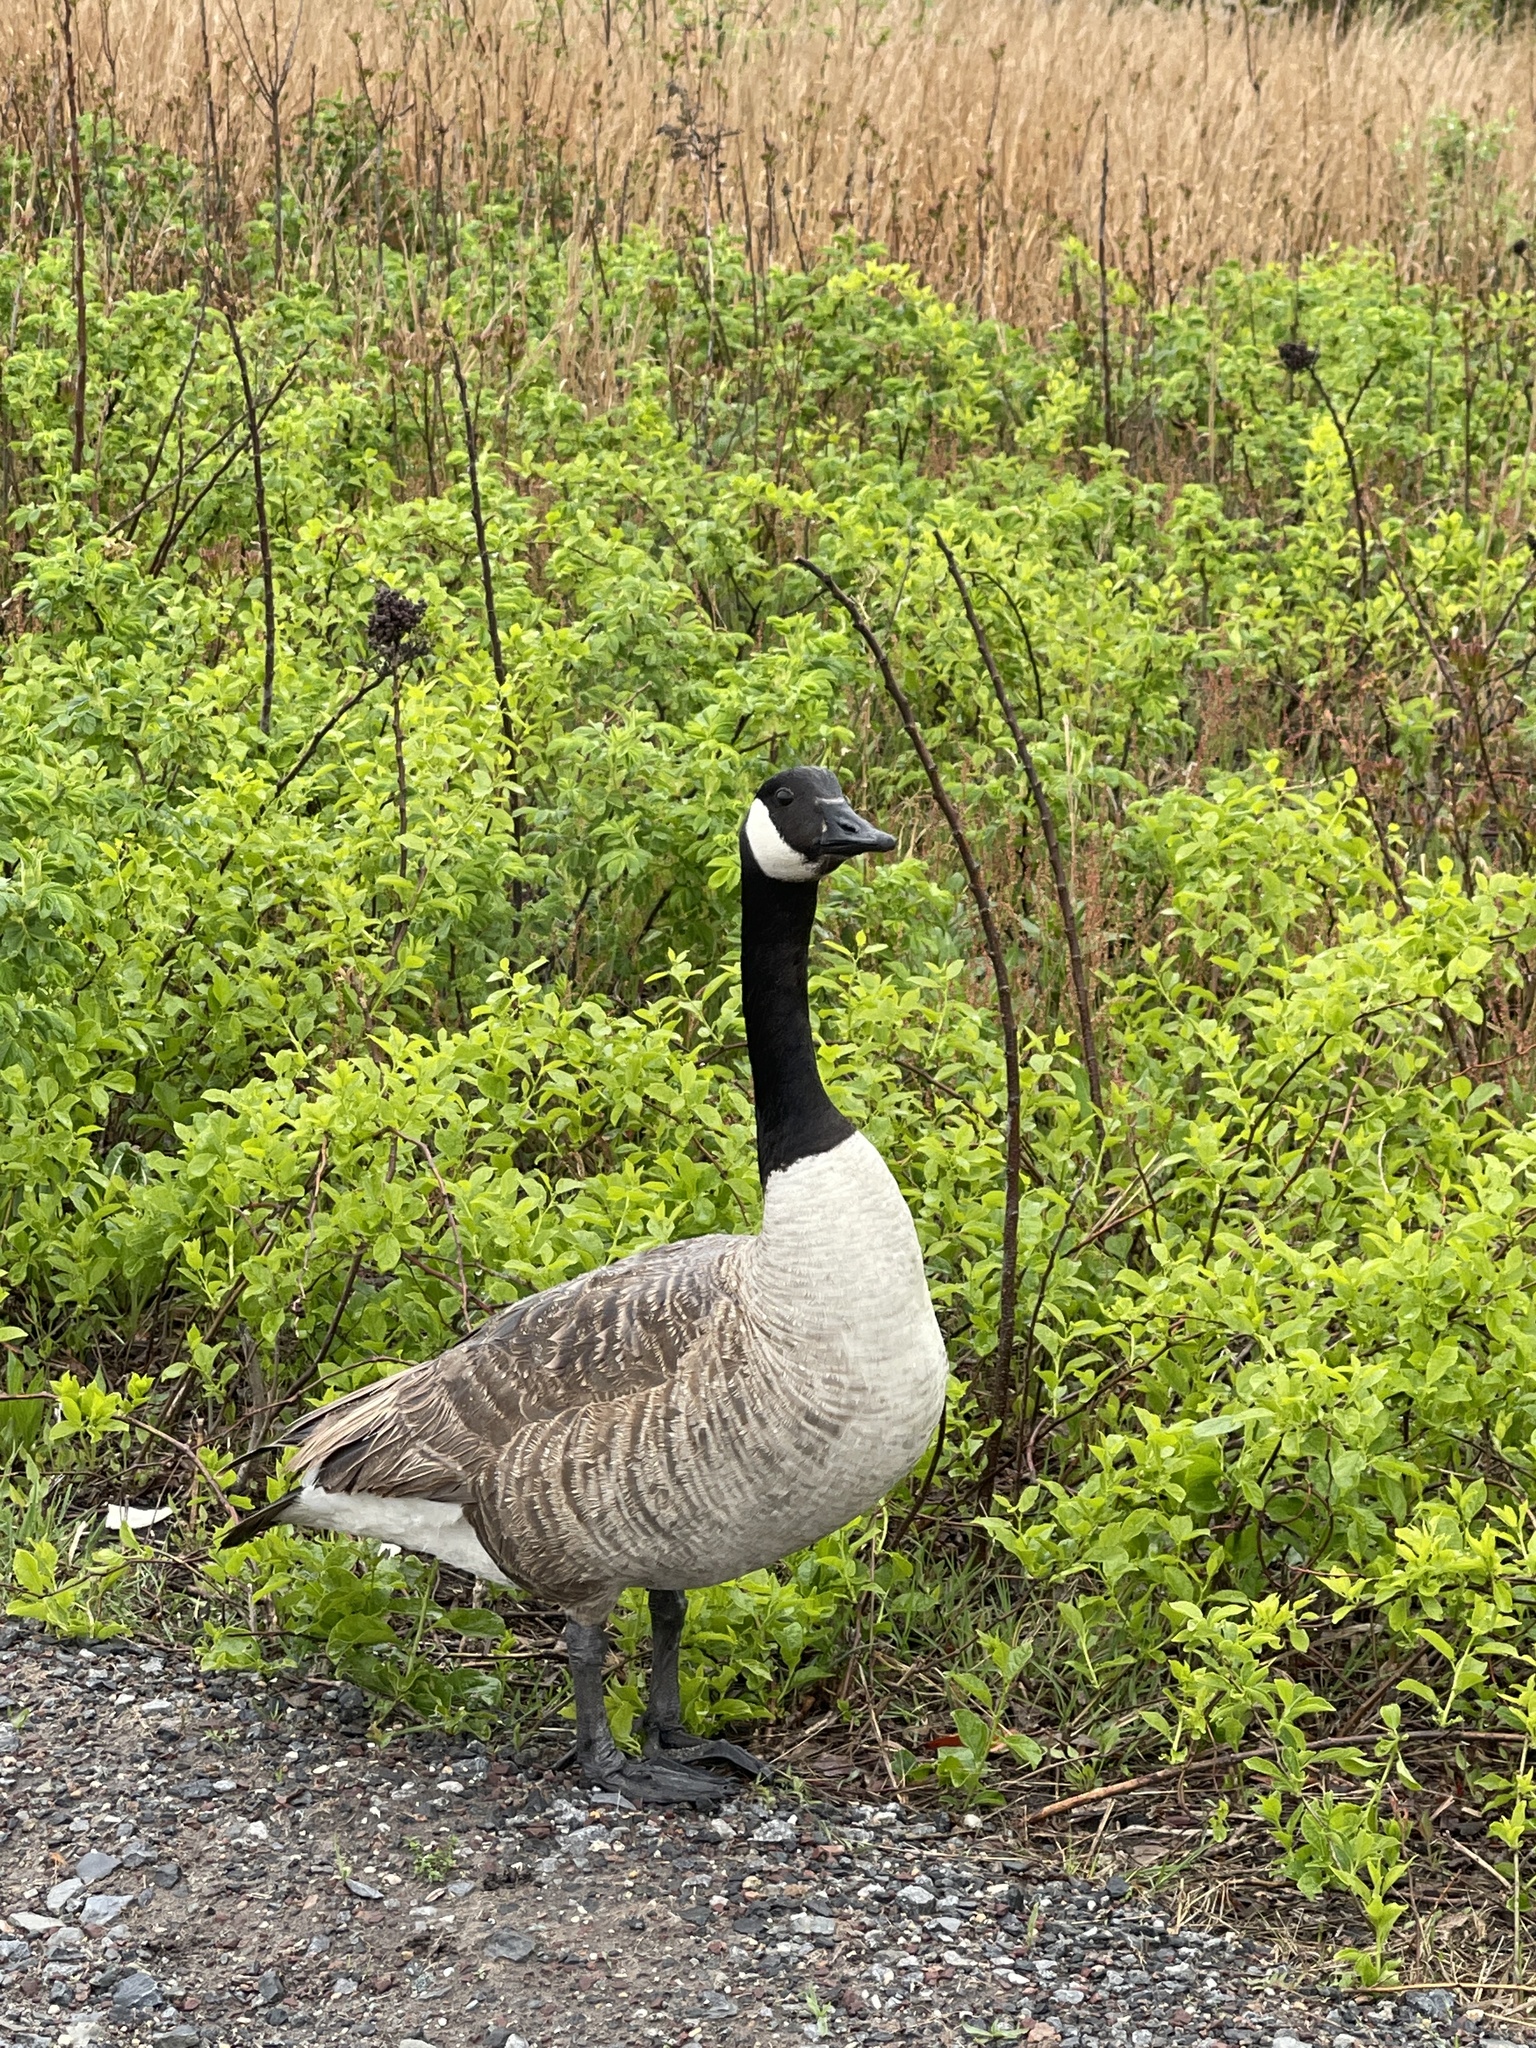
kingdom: Animalia
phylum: Chordata
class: Aves
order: Anseriformes
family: Anatidae
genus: Branta
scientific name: Branta canadensis
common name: Canada goose
